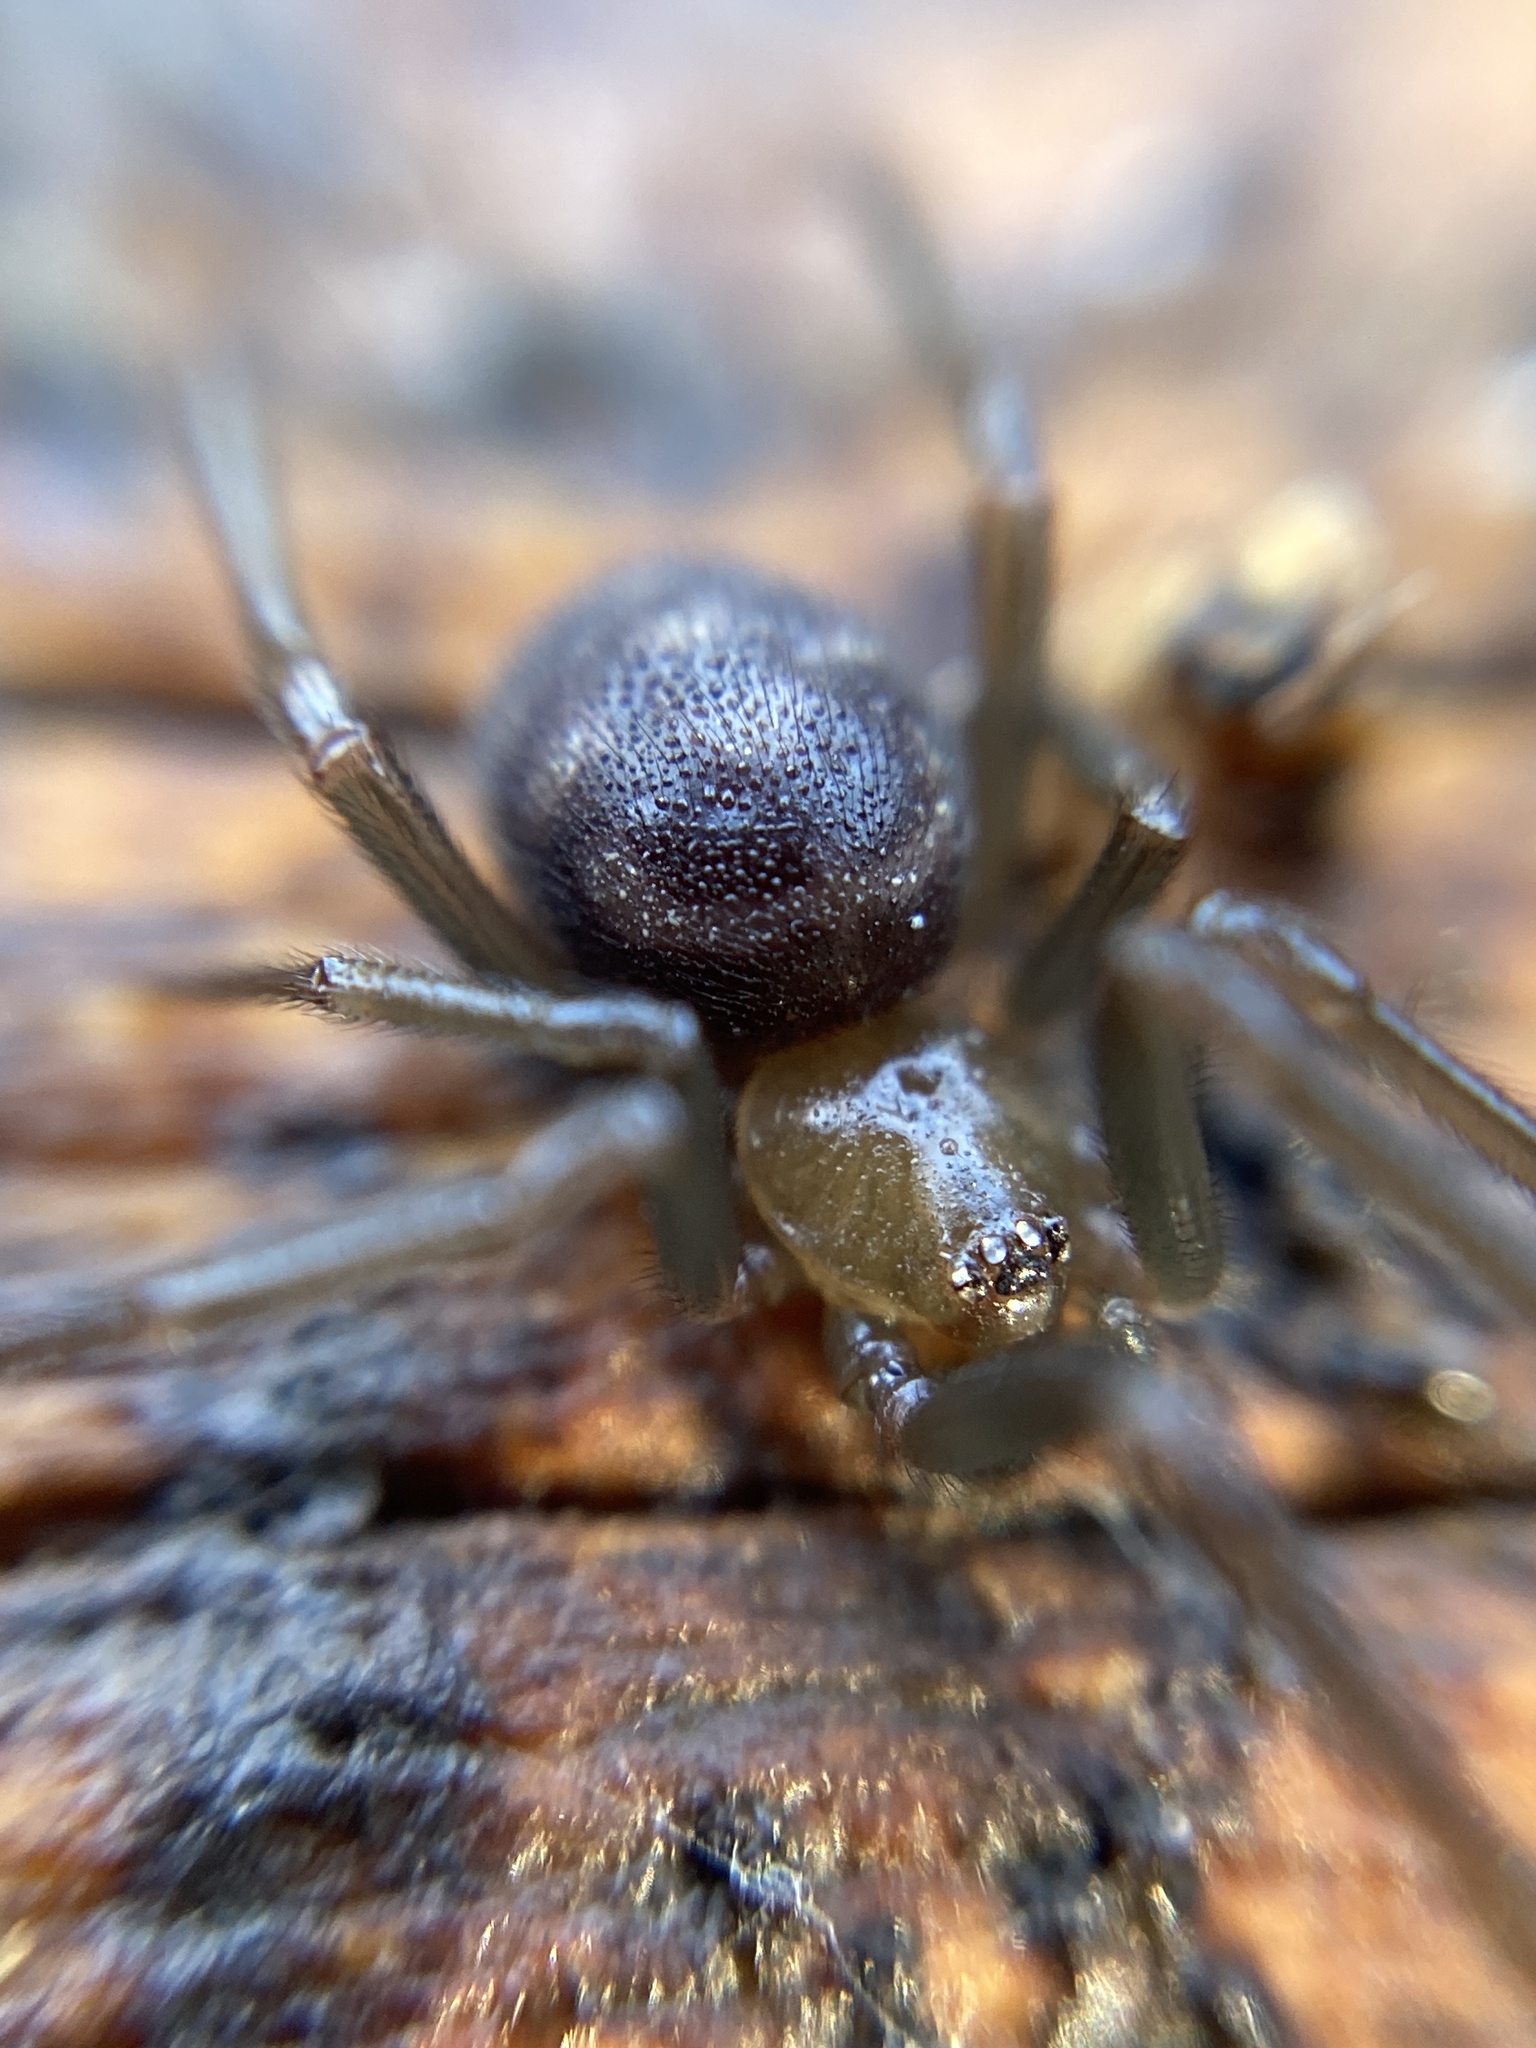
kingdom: Animalia
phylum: Arthropoda
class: Arachnida
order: Araneae
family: Theridiidae
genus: Steatoda
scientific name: Steatoda grossa
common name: False black widow
